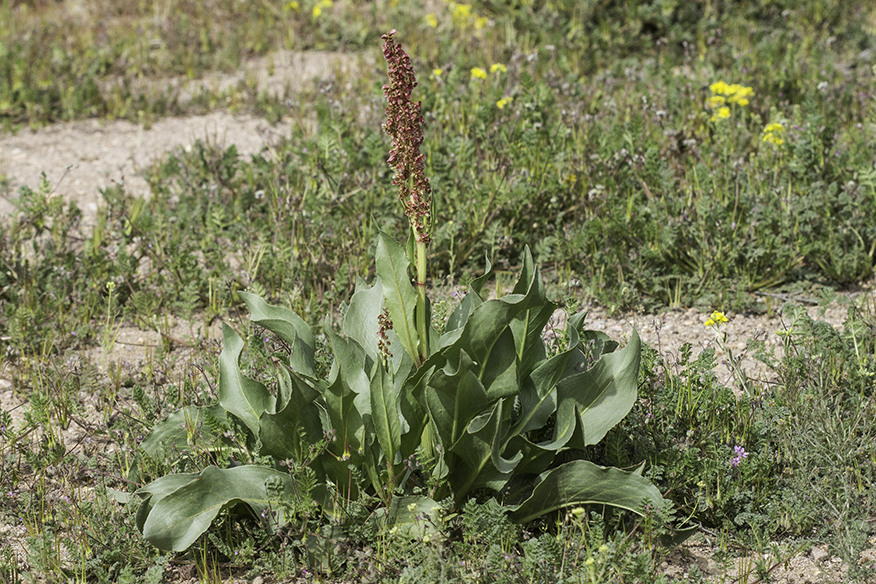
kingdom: Plantae
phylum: Tracheophyta
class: Magnoliopsida
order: Caryophyllales
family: Polygonaceae
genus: Rumex
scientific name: Rumex hymenosepalus
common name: Ganagra
